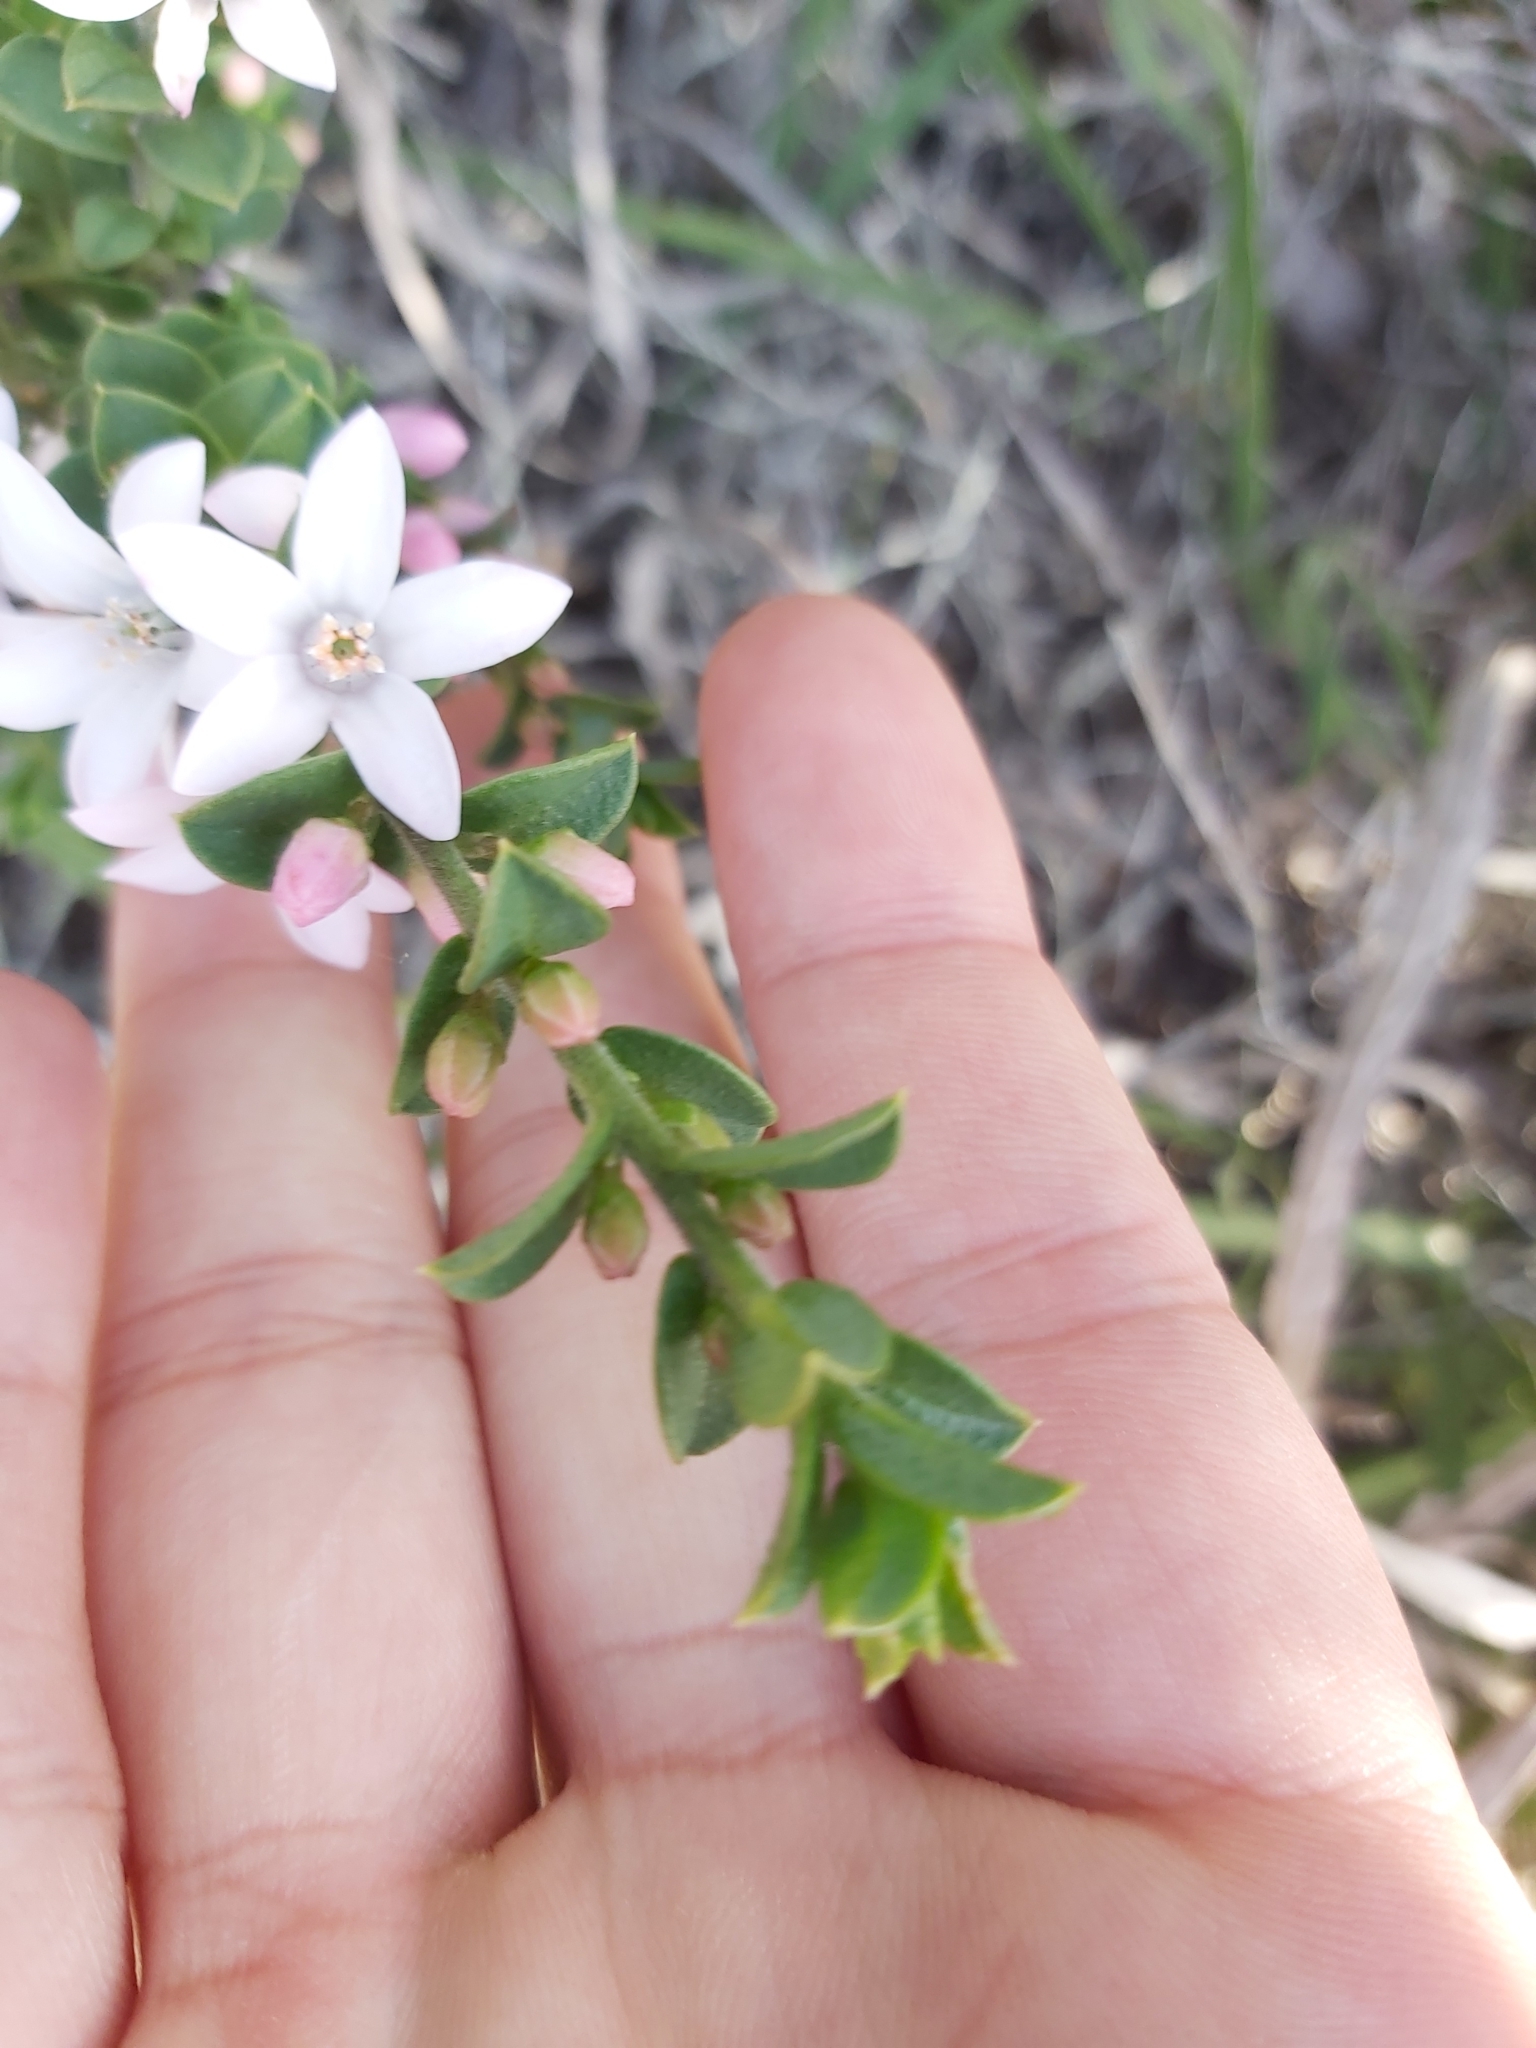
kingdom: Plantae
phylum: Tracheophyta
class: Magnoliopsida
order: Sapindales
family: Rutaceae
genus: Philotheca
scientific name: Philotheca buxifolia
